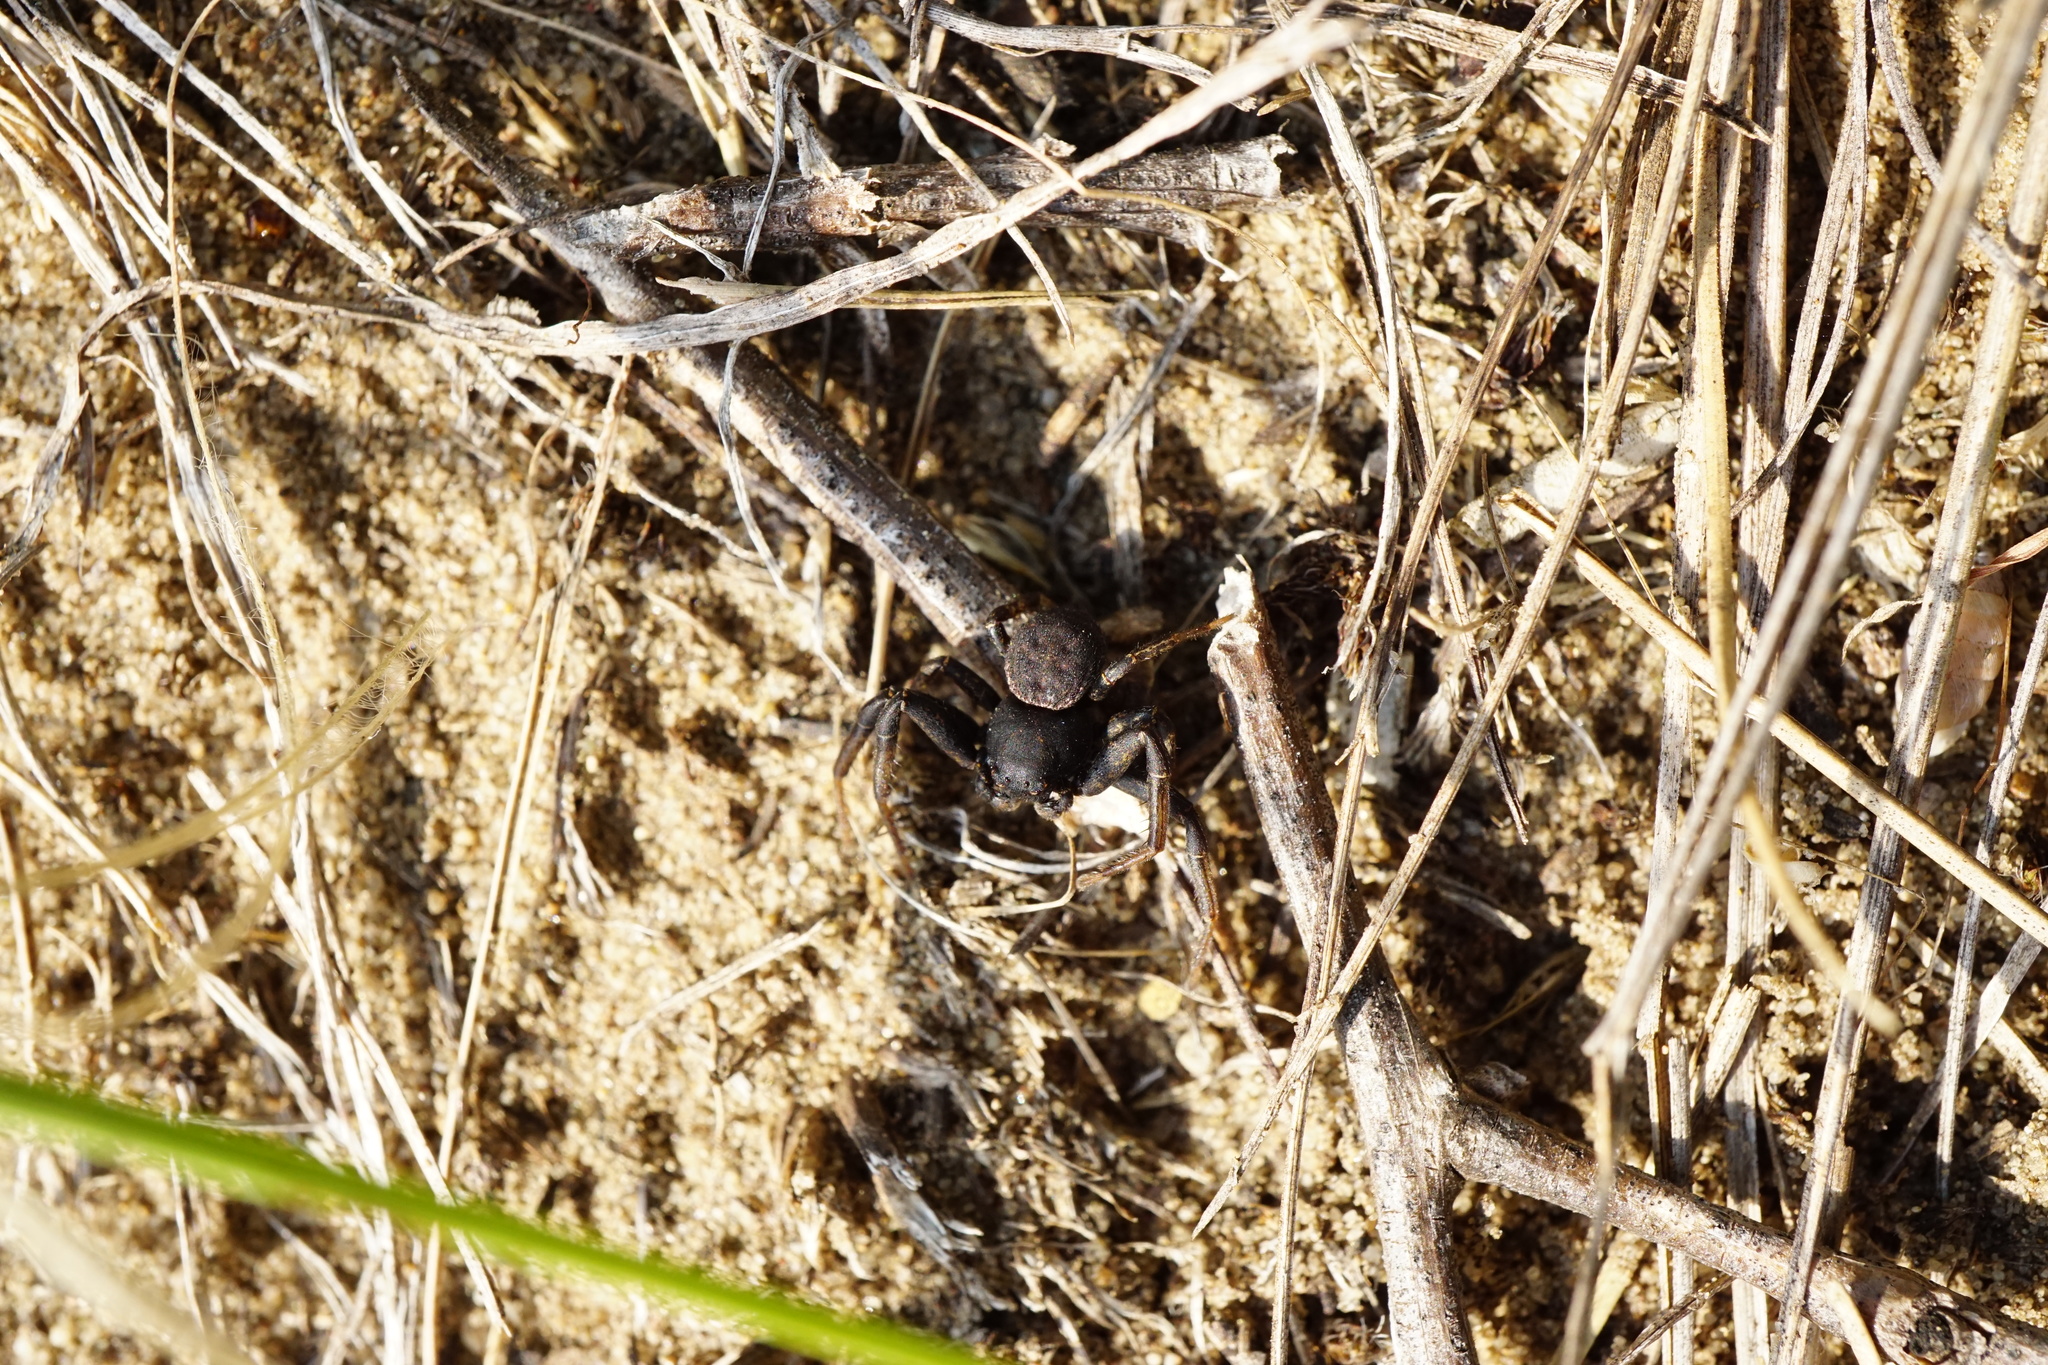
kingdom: Animalia
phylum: Arthropoda
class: Arachnida
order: Araneae
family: Thomisidae
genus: Bassaniodes
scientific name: Bassaniodes robustus
